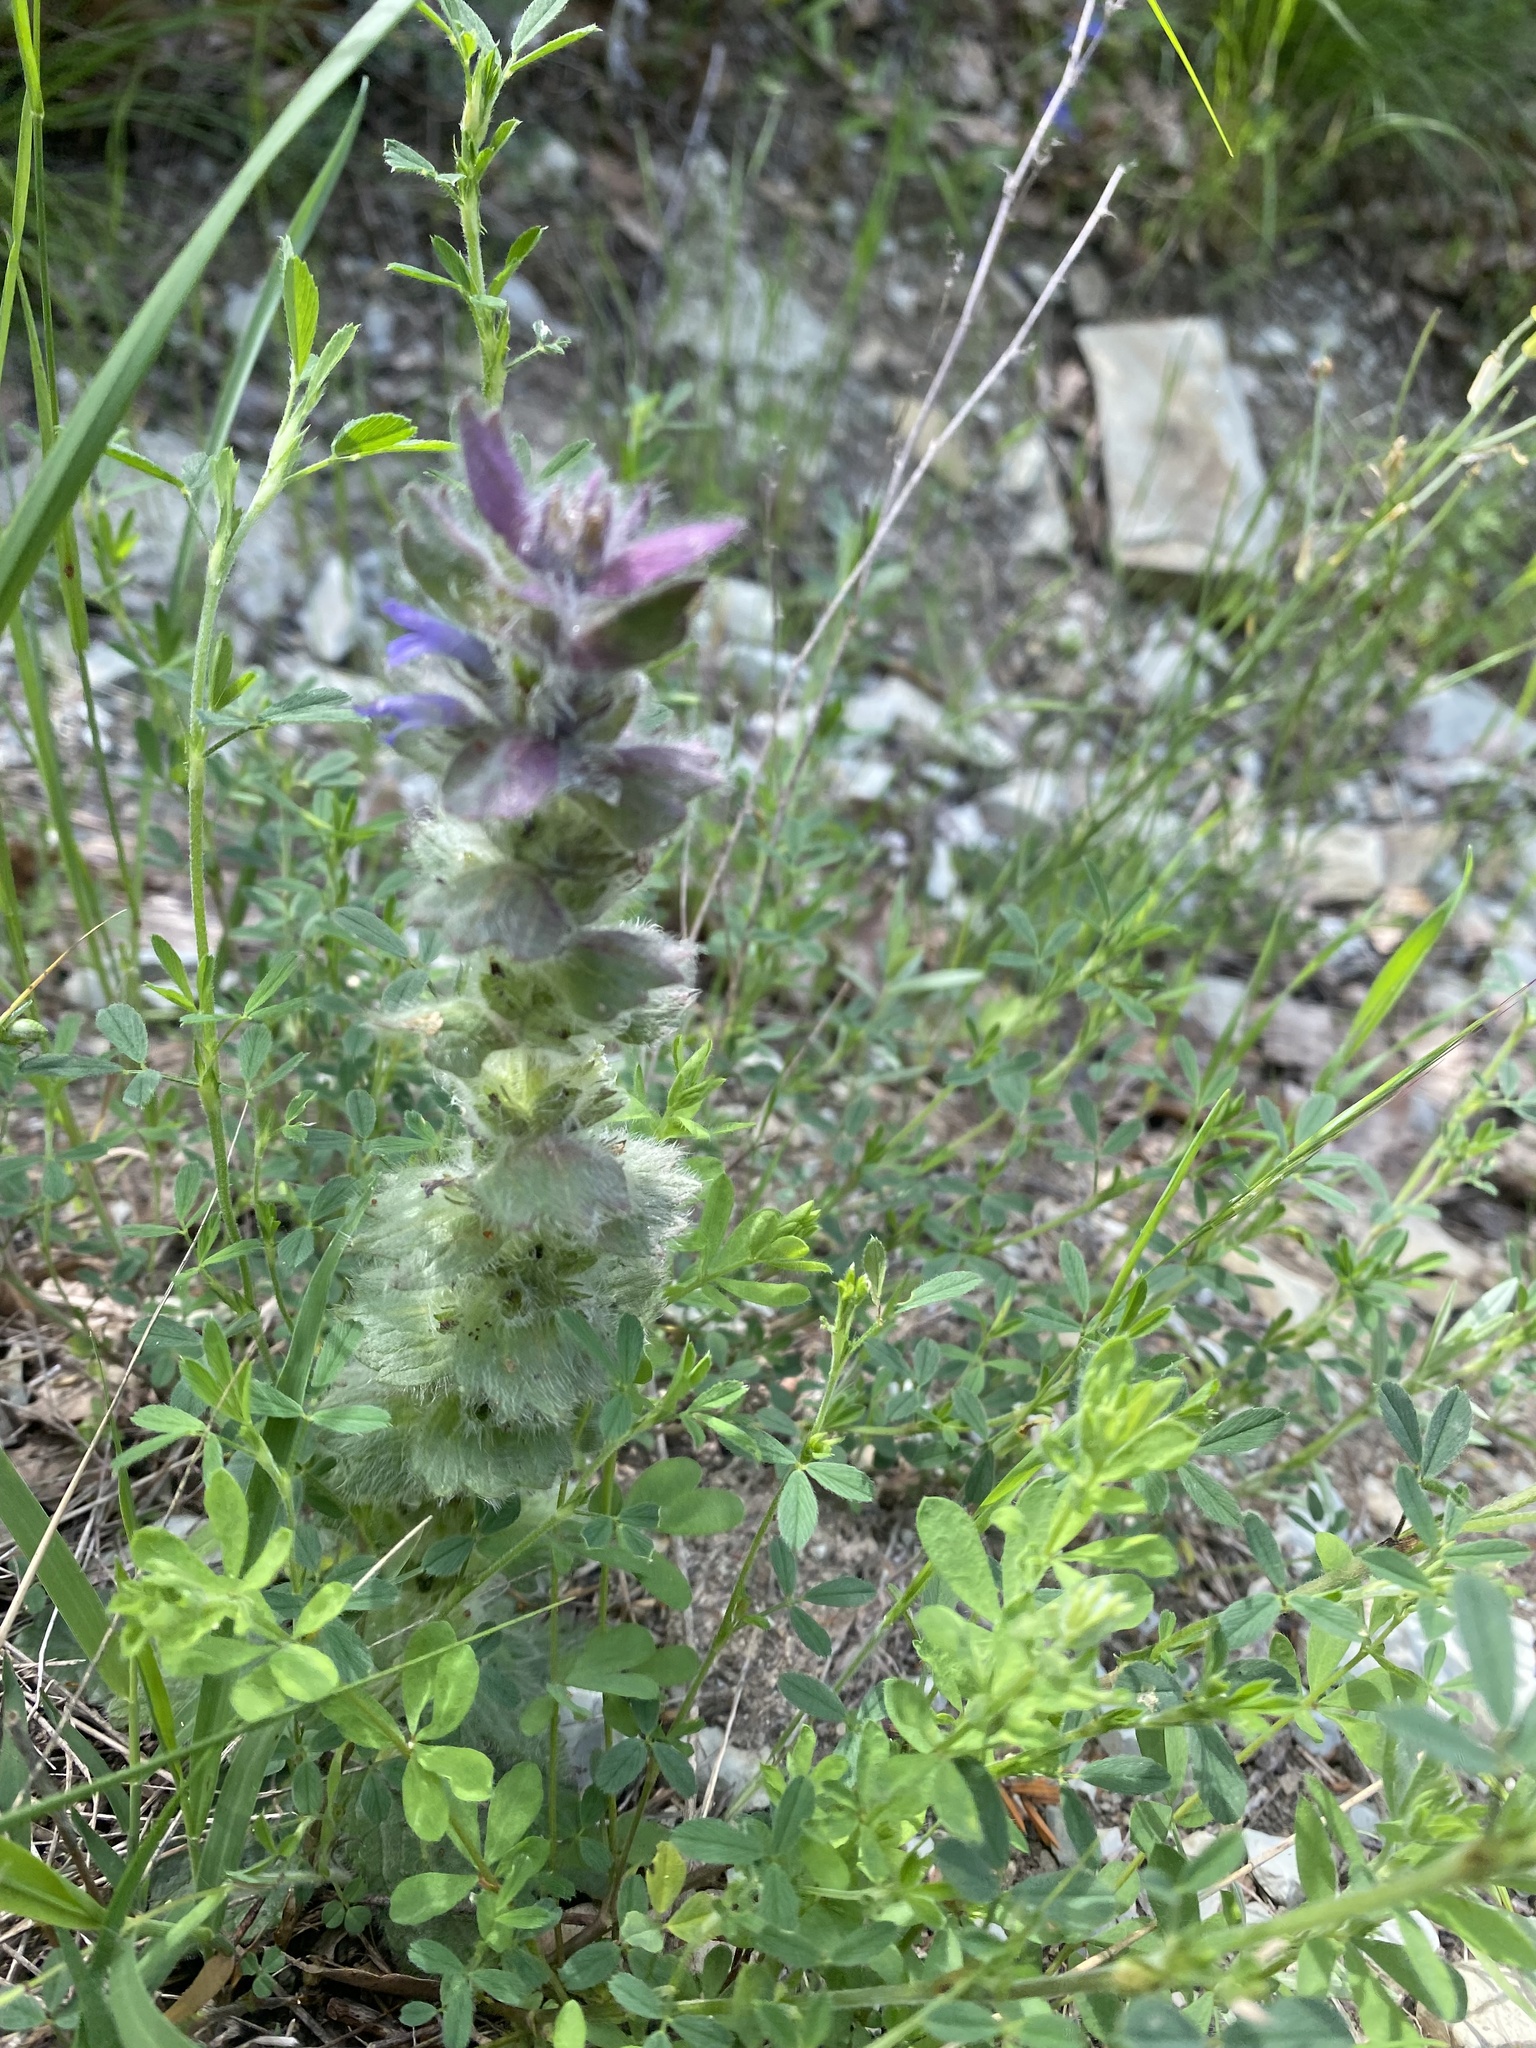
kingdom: Plantae
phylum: Tracheophyta
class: Magnoliopsida
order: Lamiales
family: Lamiaceae
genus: Ajuga
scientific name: Ajuga orientalis
